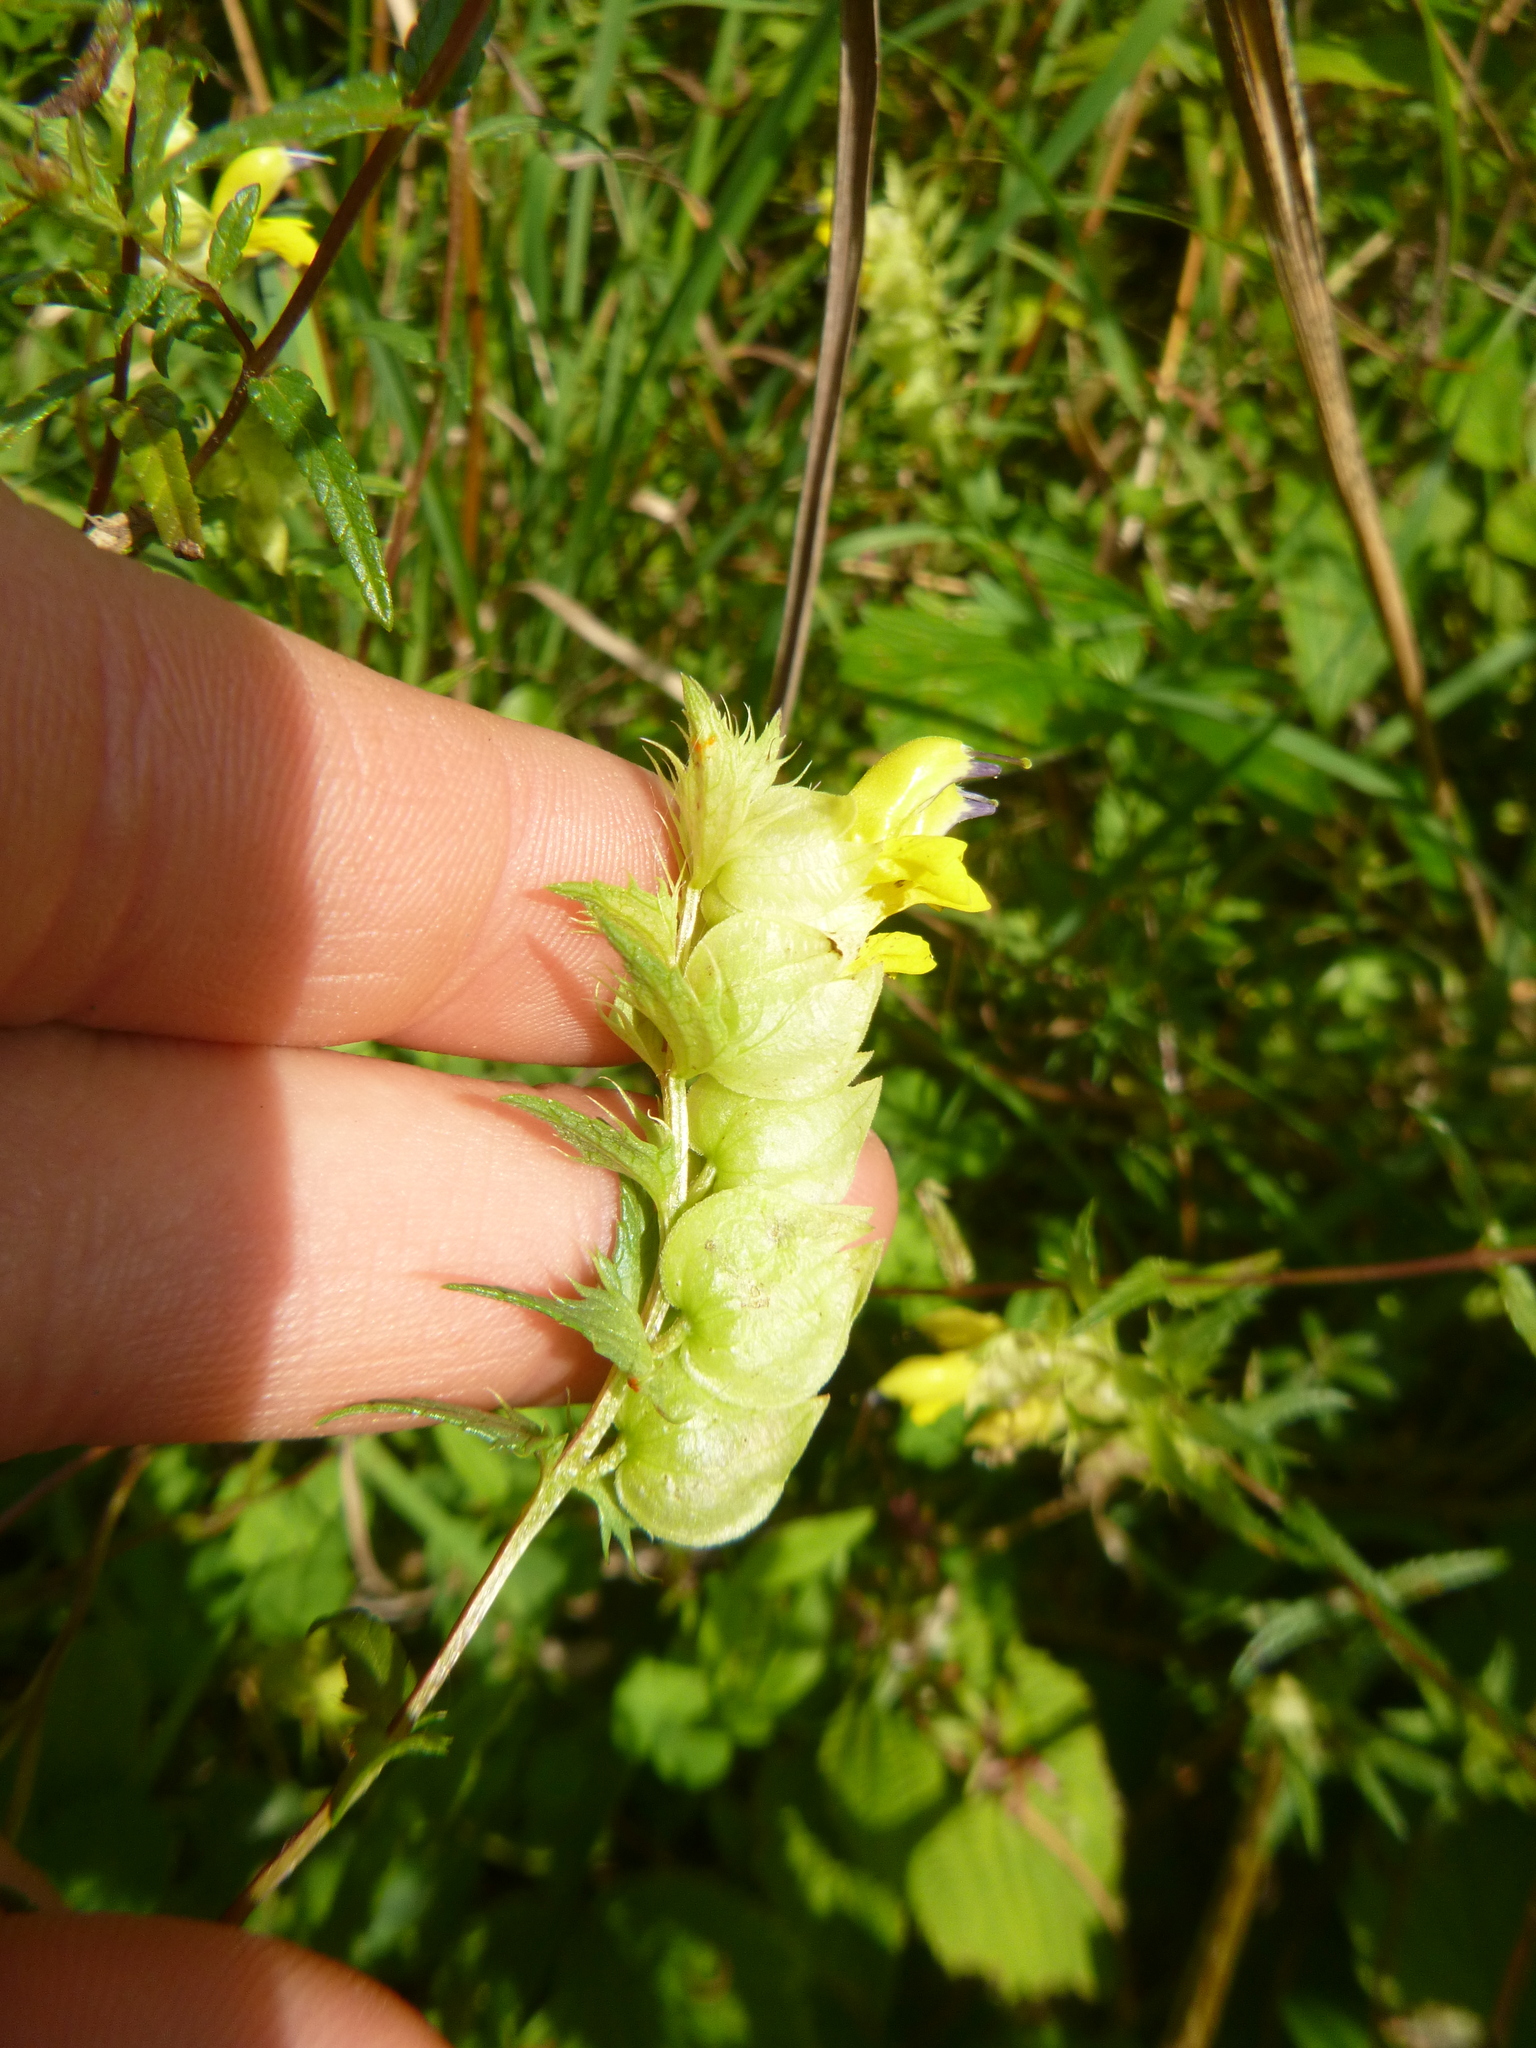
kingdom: Plantae
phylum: Tracheophyta
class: Magnoliopsida
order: Lamiales
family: Orobanchaceae
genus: Rhinanthus
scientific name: Rhinanthus glacialis
